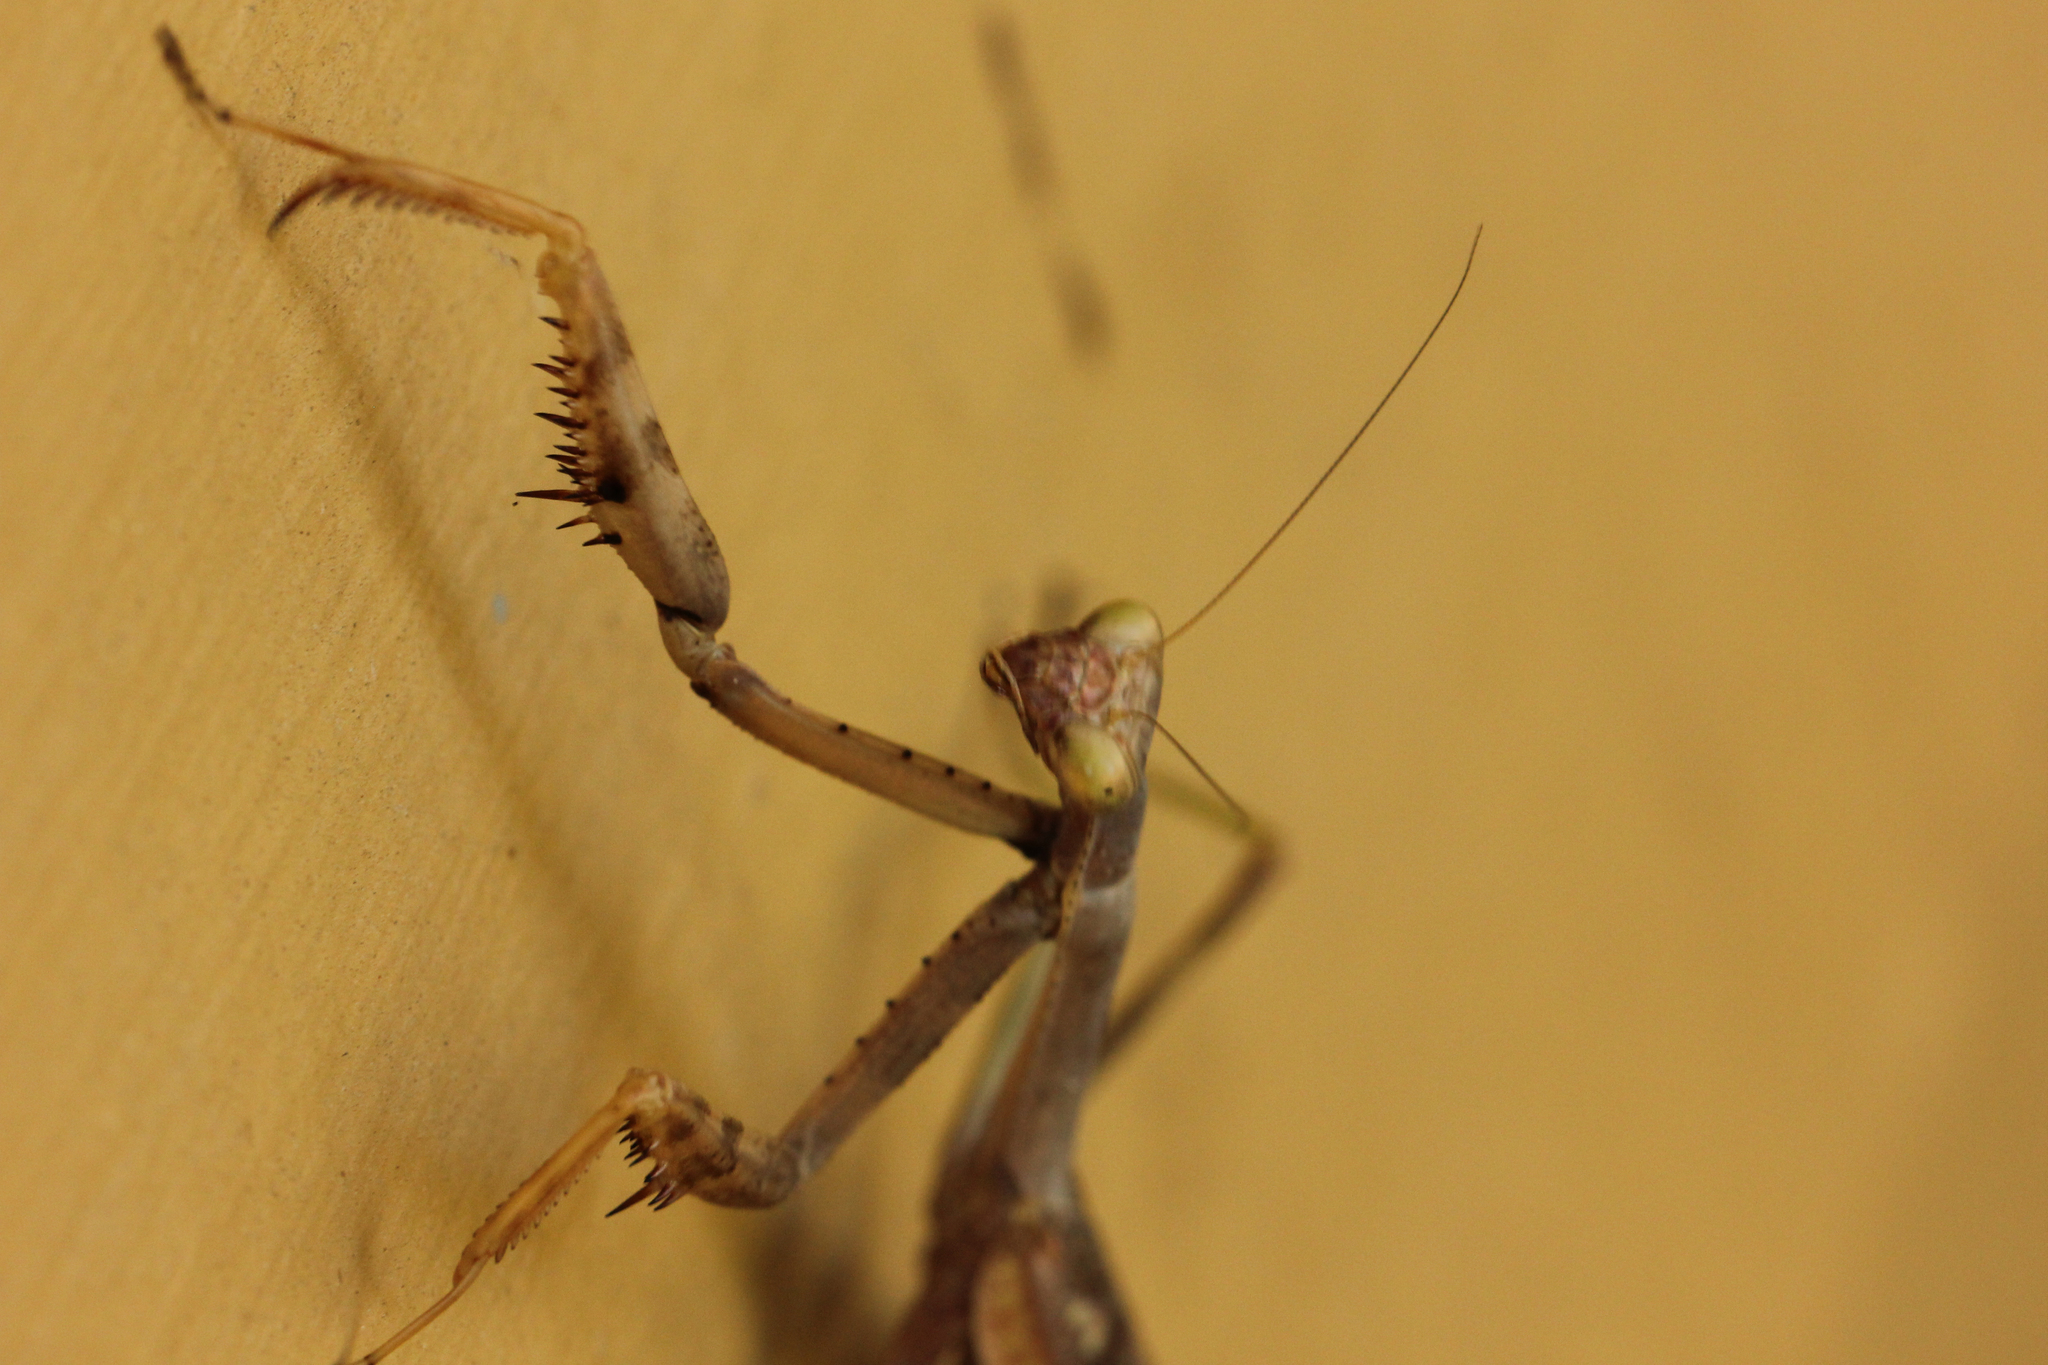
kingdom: Animalia
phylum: Arthropoda
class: Insecta
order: Mantodea
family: Mantidae
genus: Stagmomantis
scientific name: Stagmomantis carolina
